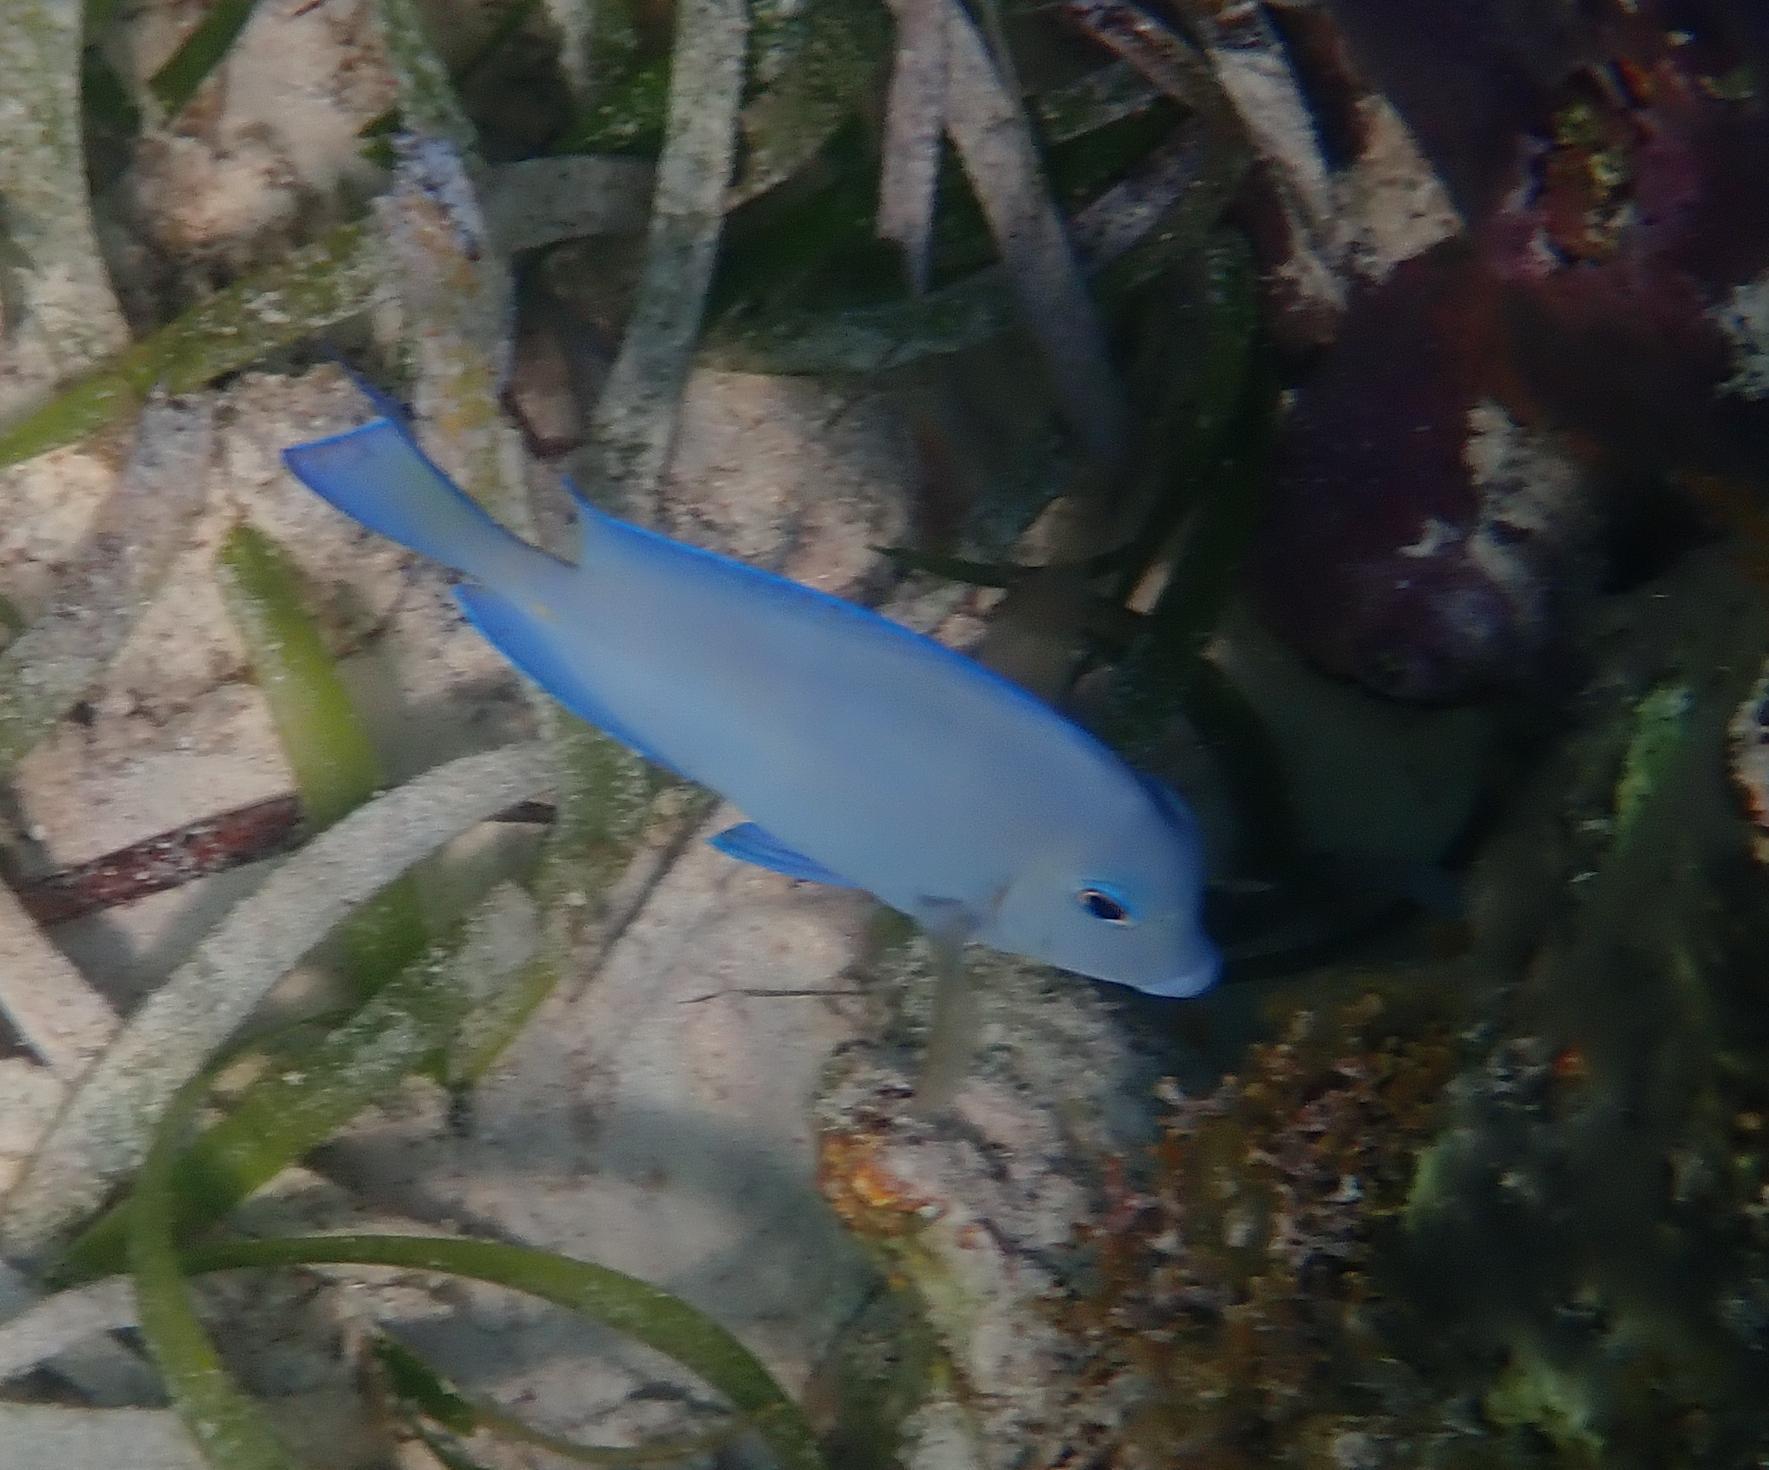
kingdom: Animalia
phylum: Chordata
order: Perciformes
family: Acanthuridae
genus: Acanthurus
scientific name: Acanthurus coeruleus
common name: Blue tang
